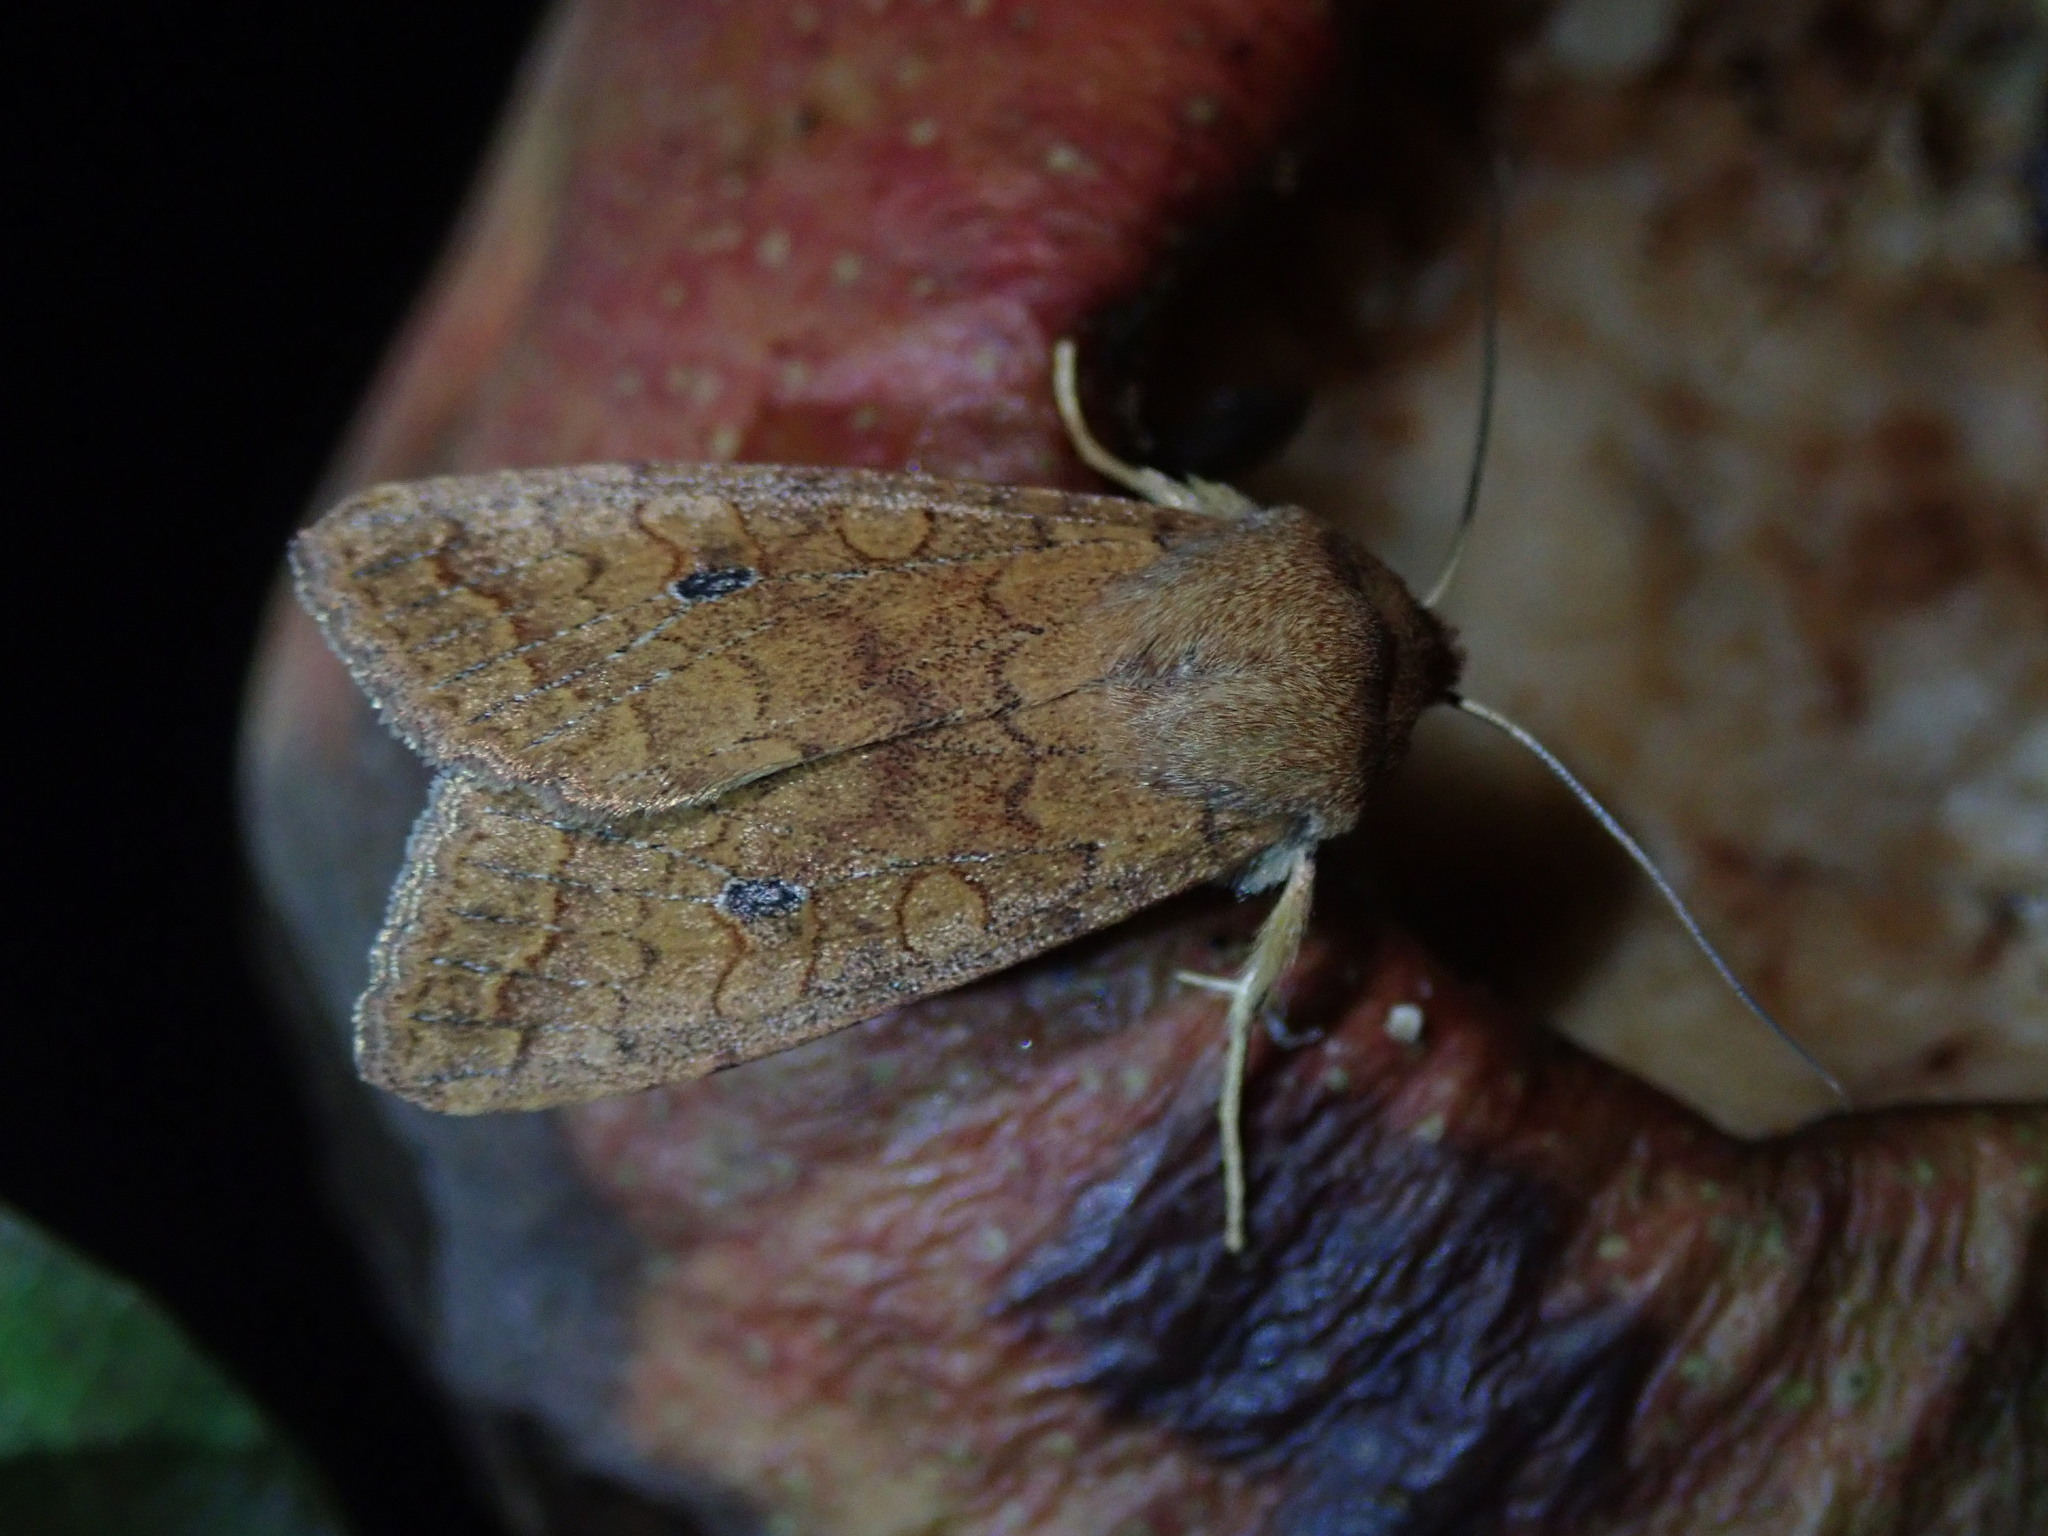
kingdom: Animalia
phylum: Arthropoda
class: Insecta
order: Lepidoptera
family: Noctuidae
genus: Sunira
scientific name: Sunira circellaris
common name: Brick
